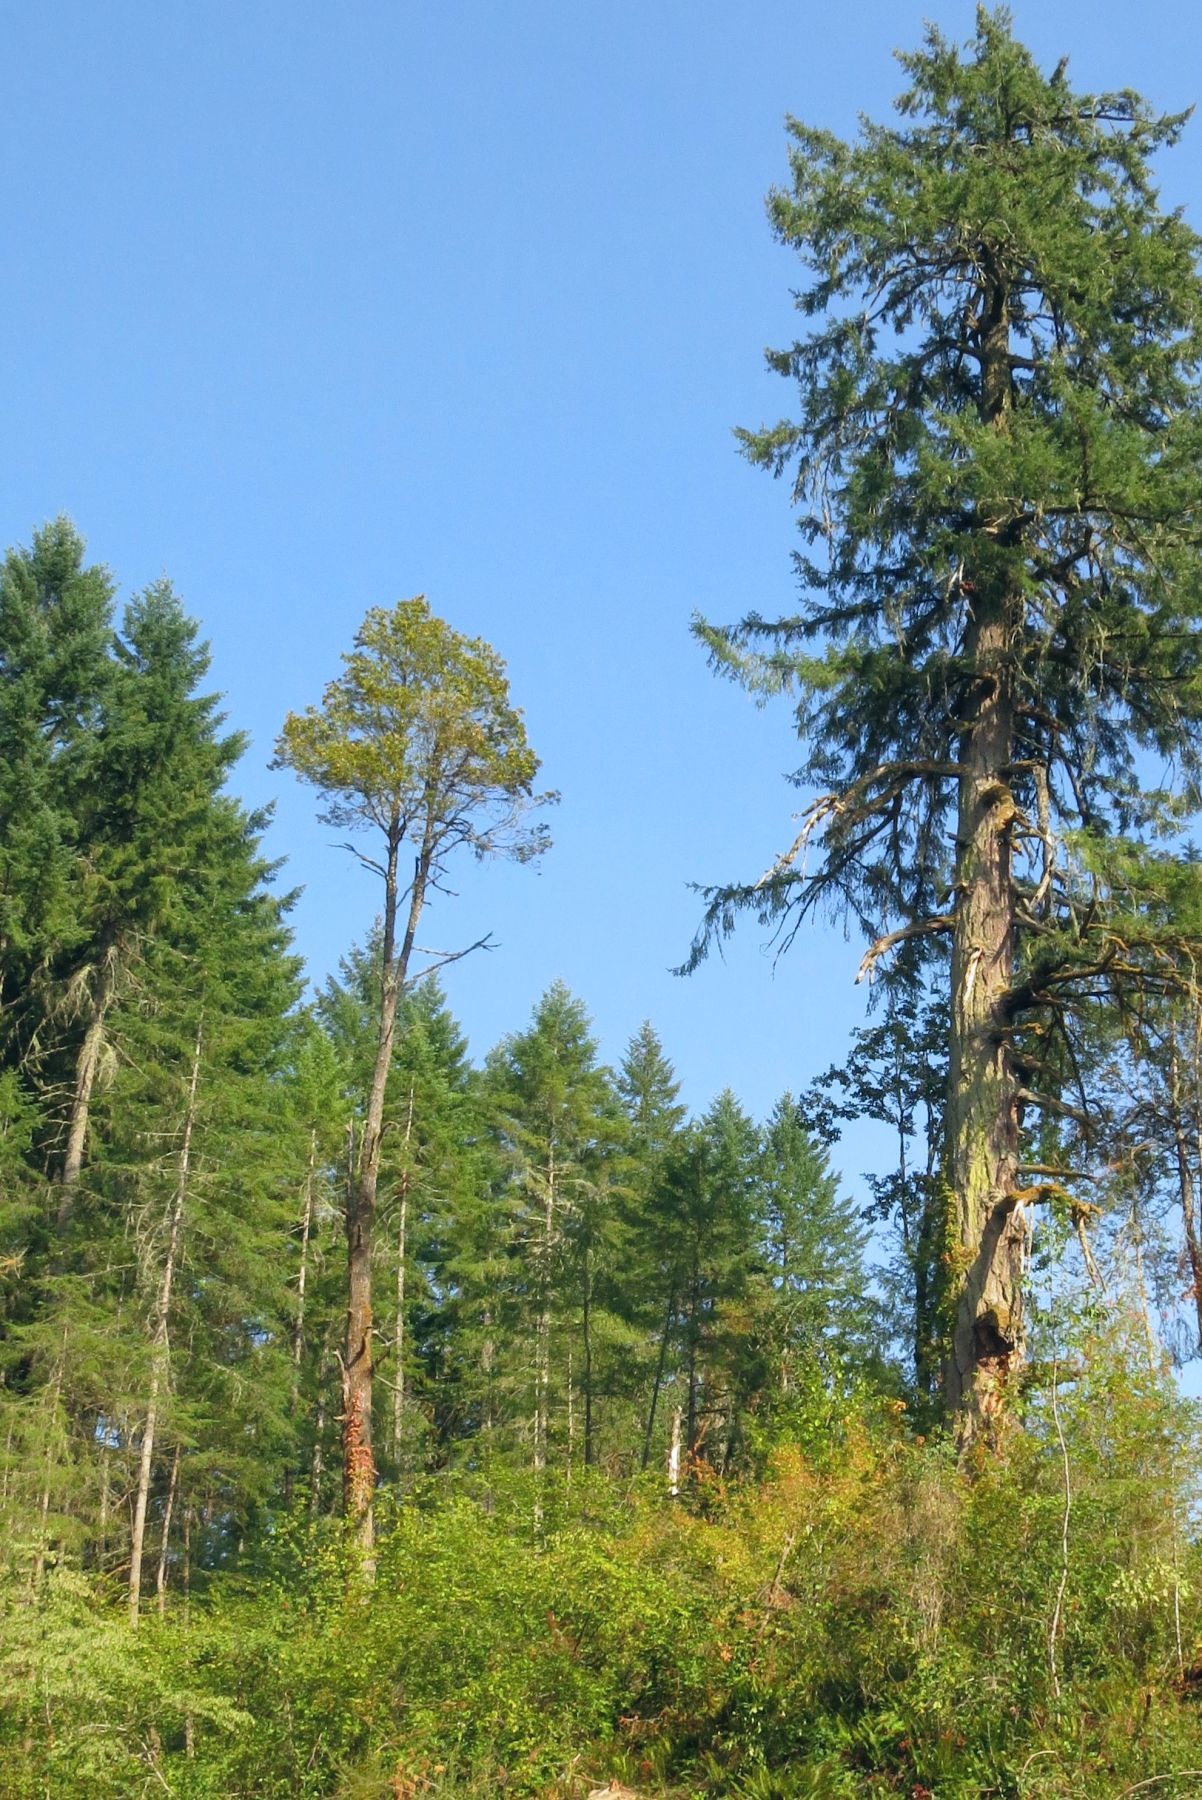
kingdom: Plantae
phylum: Tracheophyta
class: Magnoliopsida
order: Fagales
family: Fagaceae
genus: Chrysolepis
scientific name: Chrysolepis chrysophylla
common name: Giant chinquapin
